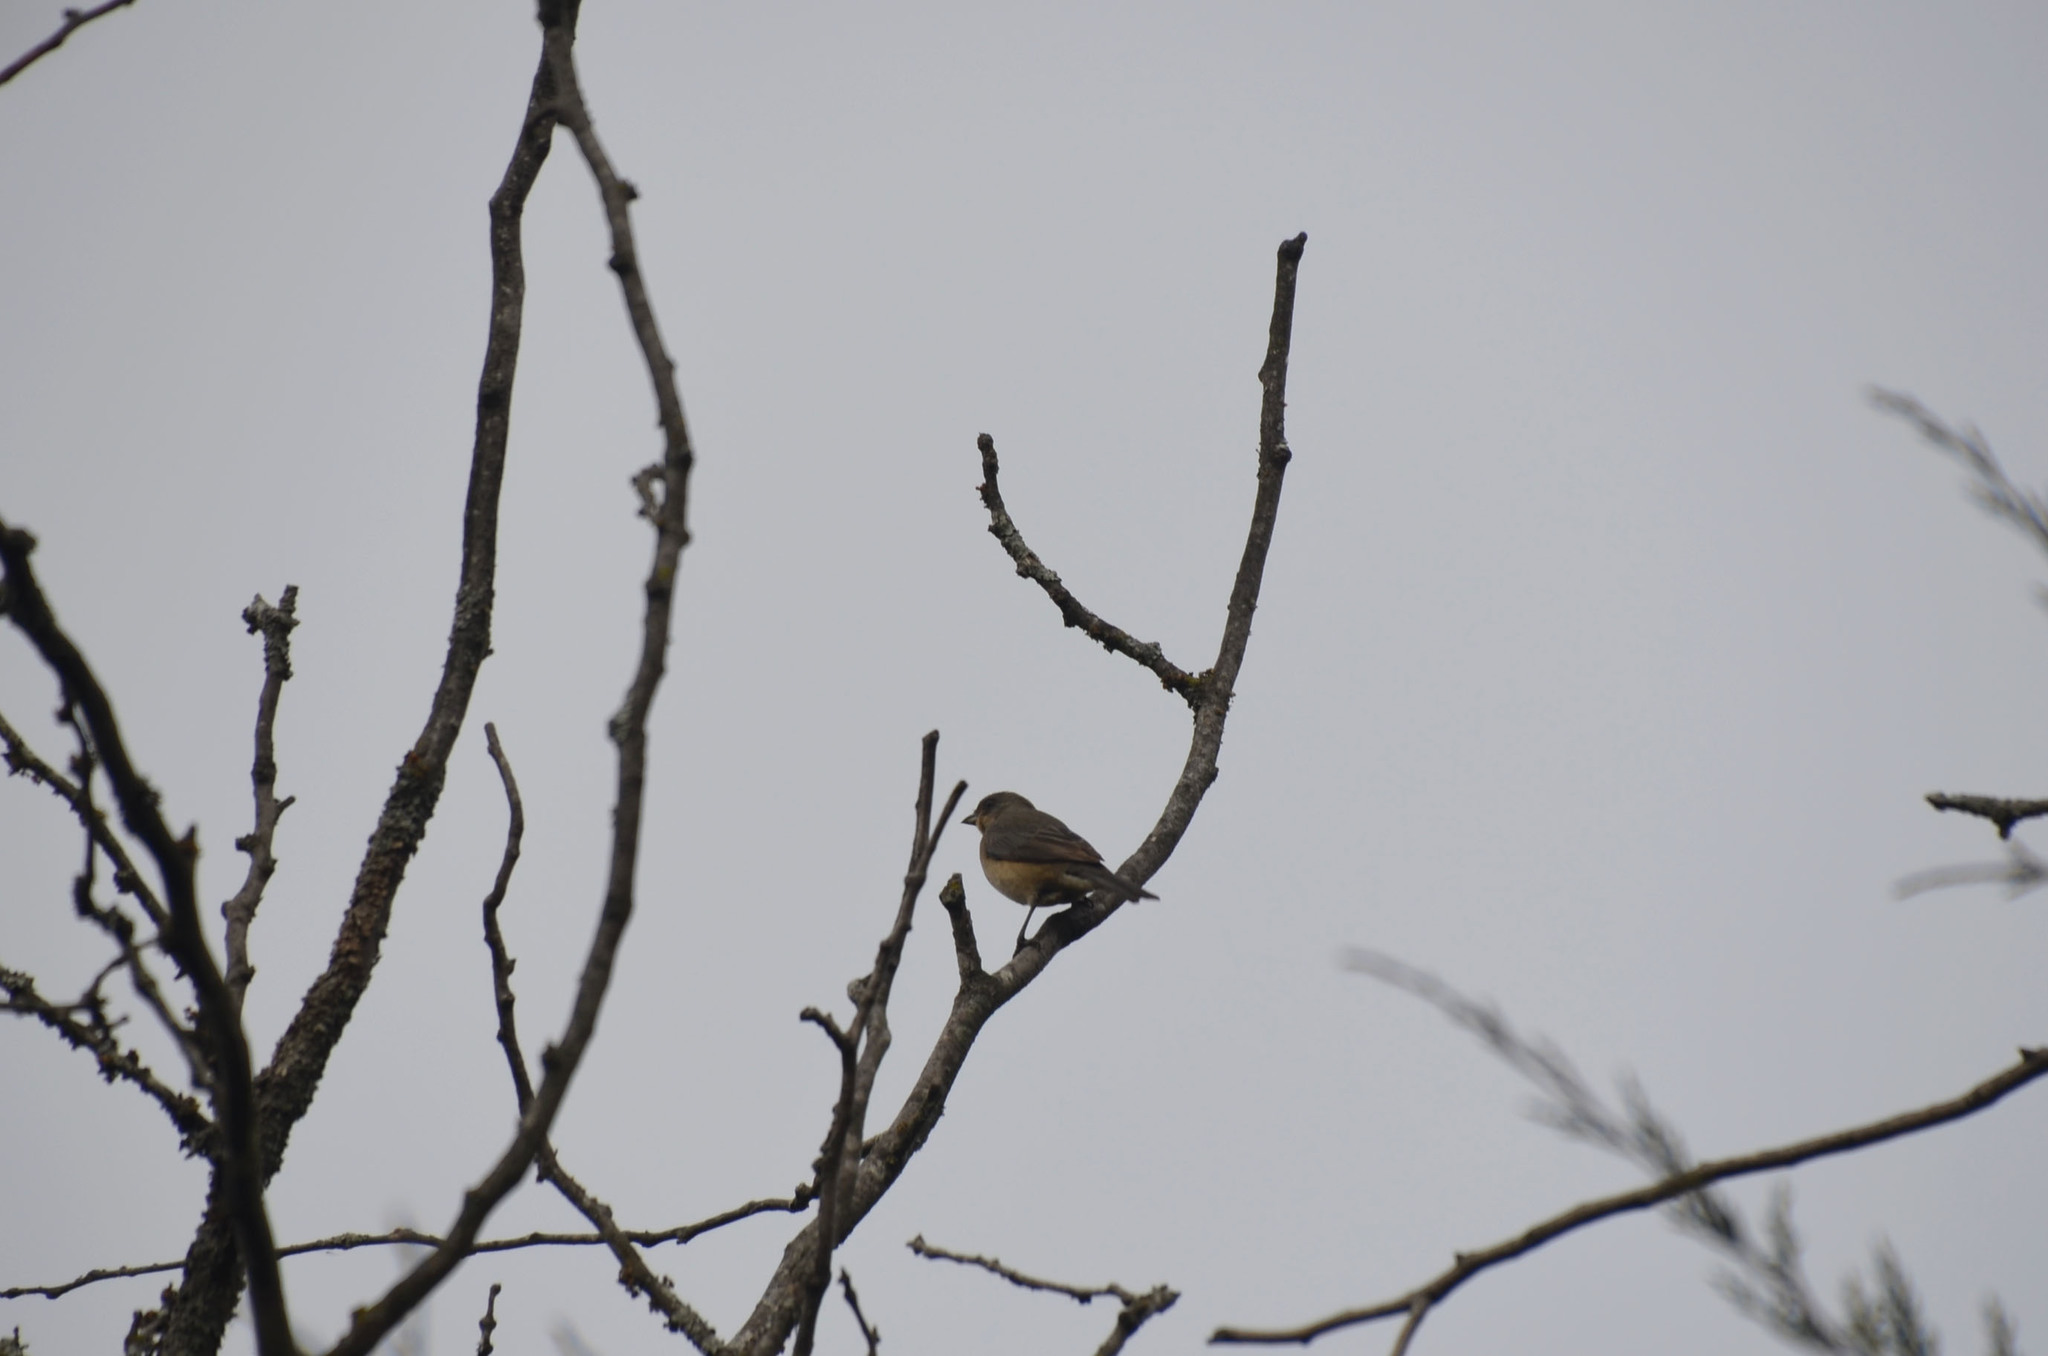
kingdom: Animalia
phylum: Chordata
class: Aves
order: Passeriformes
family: Thraupidae
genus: Rauenia
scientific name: Rauenia bonariensis
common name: Blue-and-yellow tanager
